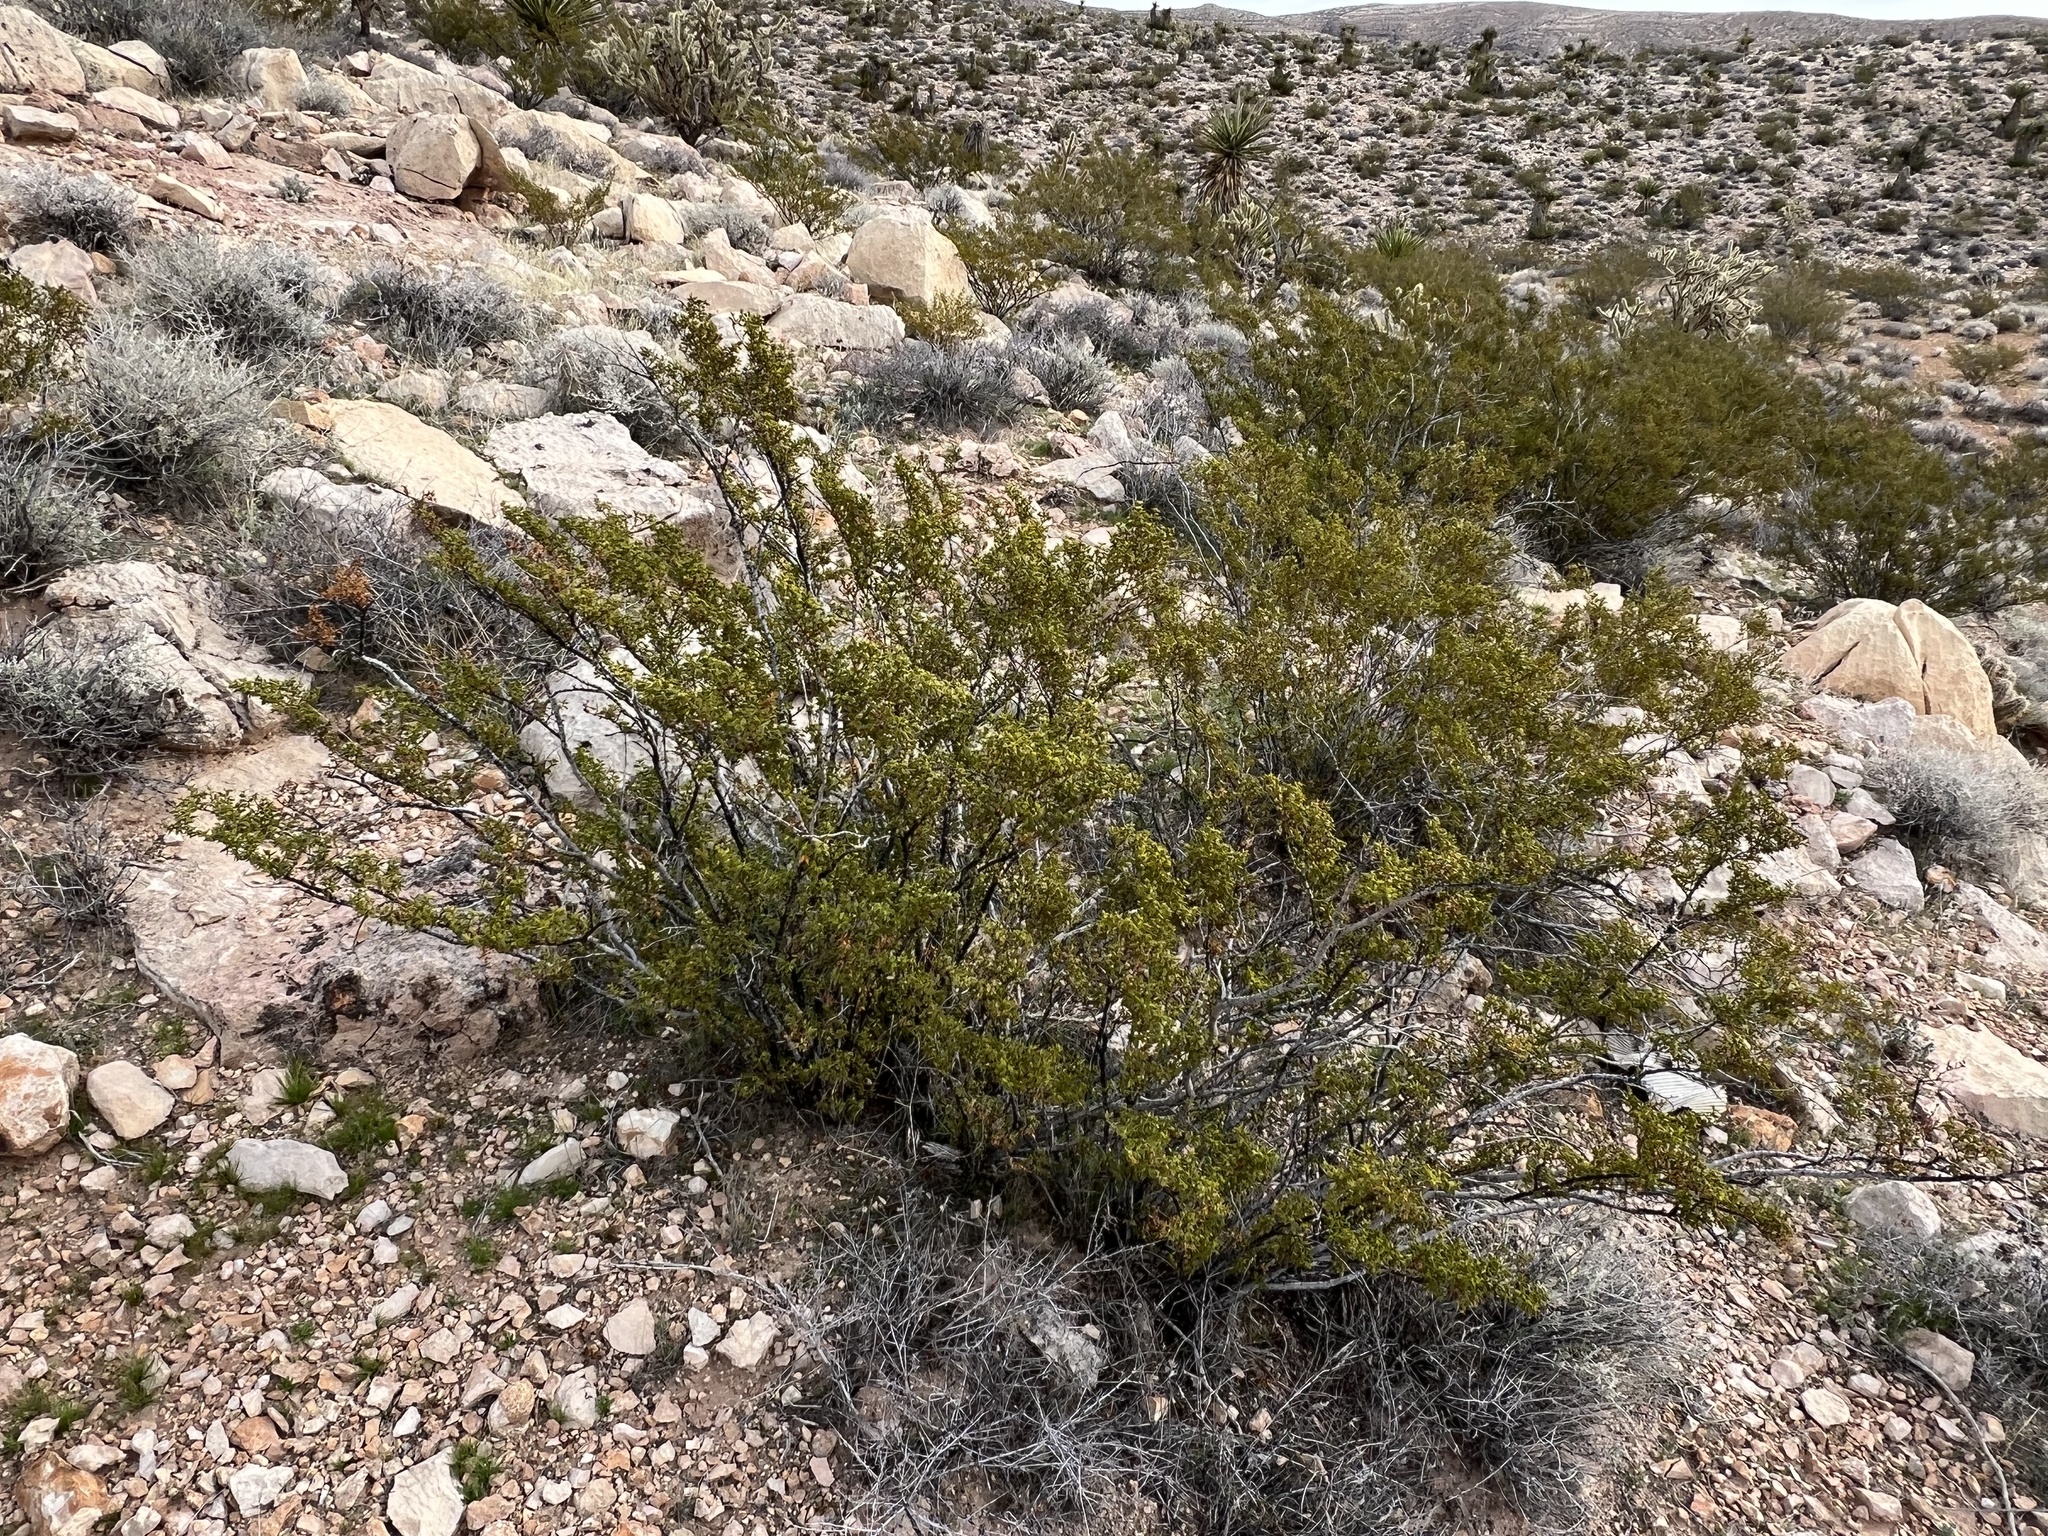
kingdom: Plantae
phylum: Tracheophyta
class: Magnoliopsida
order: Zygophyllales
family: Zygophyllaceae
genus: Larrea
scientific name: Larrea tridentata
